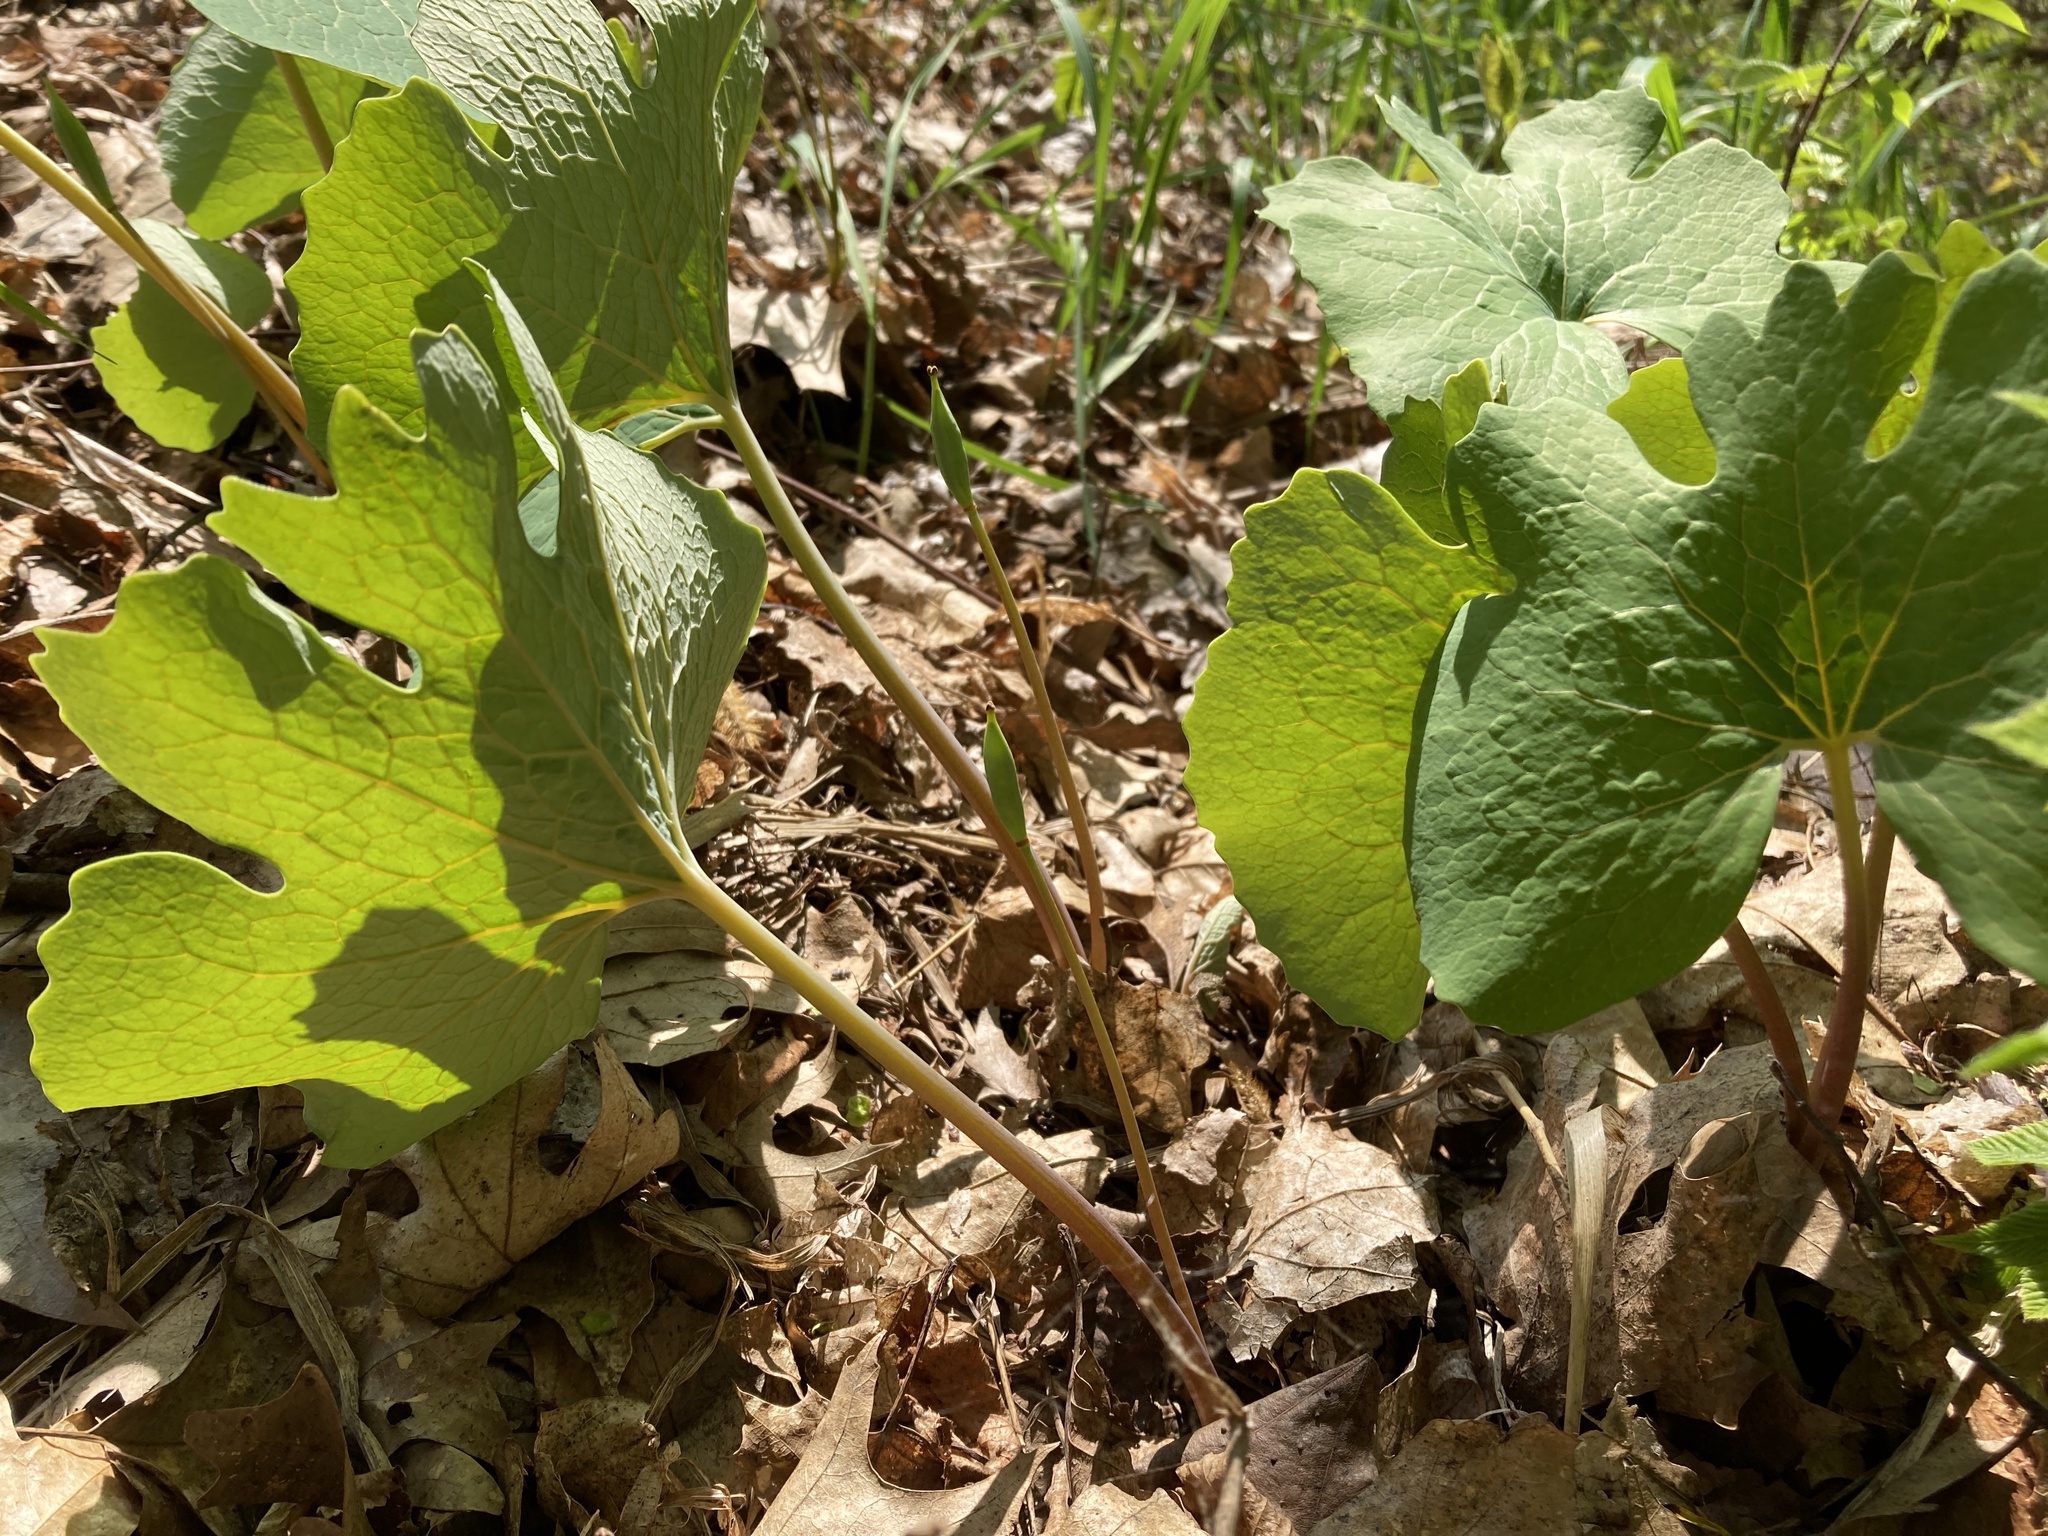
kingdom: Plantae
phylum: Tracheophyta
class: Magnoliopsida
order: Ranunculales
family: Papaveraceae
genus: Sanguinaria
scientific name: Sanguinaria canadensis
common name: Bloodroot
